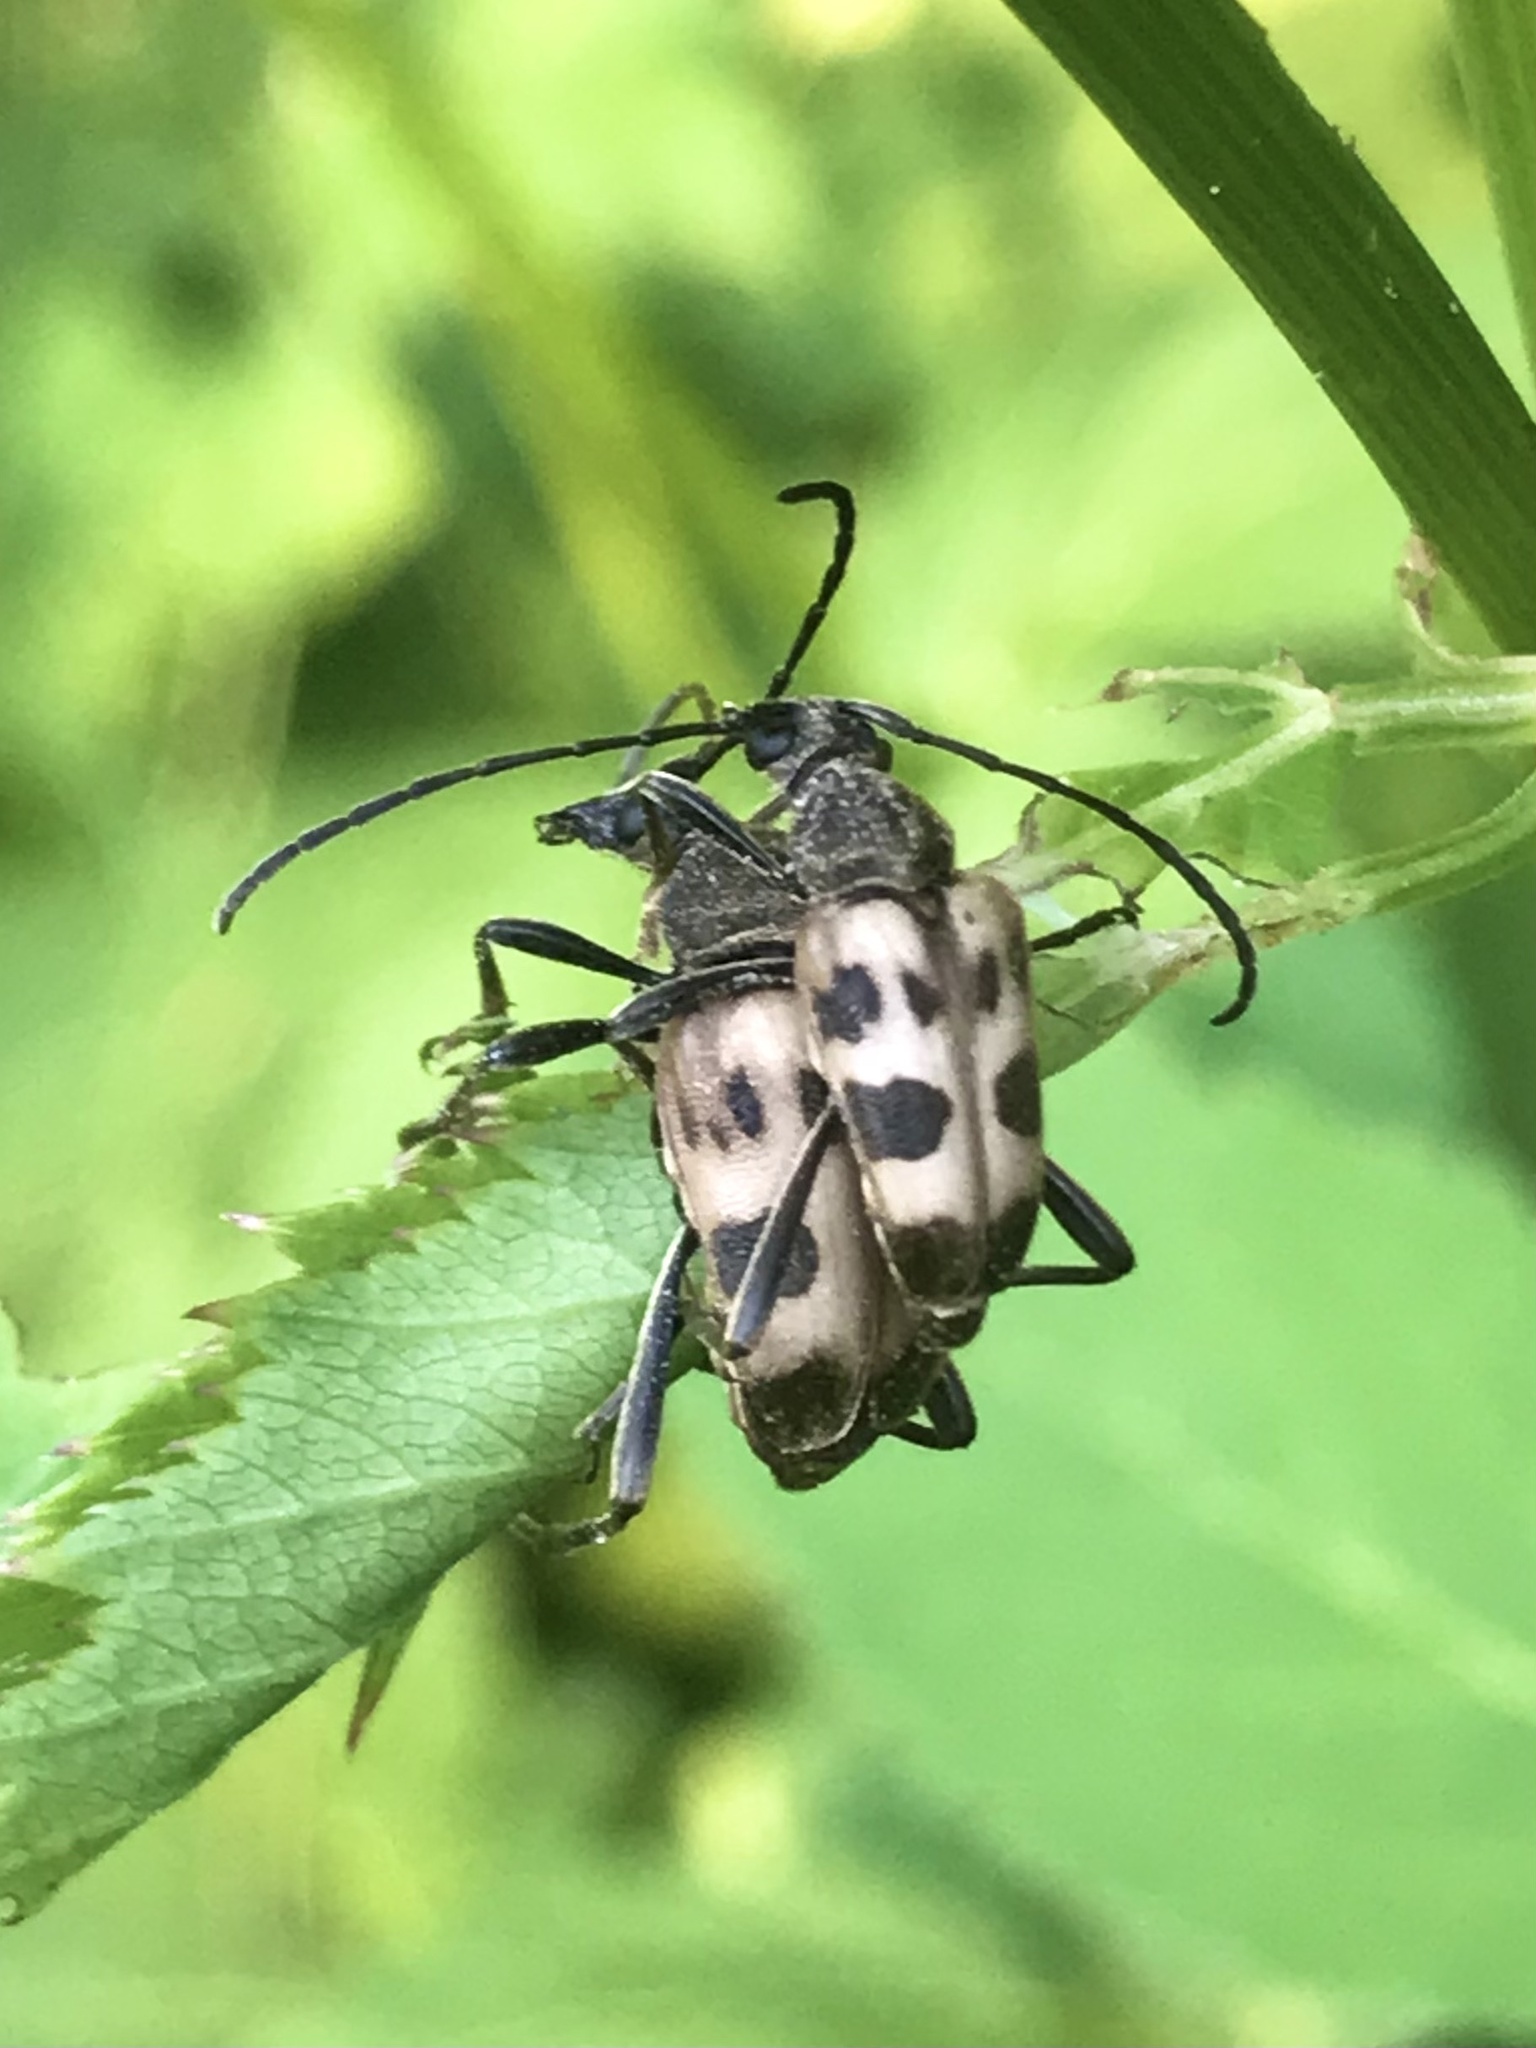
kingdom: Animalia
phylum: Arthropoda
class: Insecta
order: Coleoptera
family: Cerambycidae
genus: Pachytodes
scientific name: Pachytodes cerambyciformis
